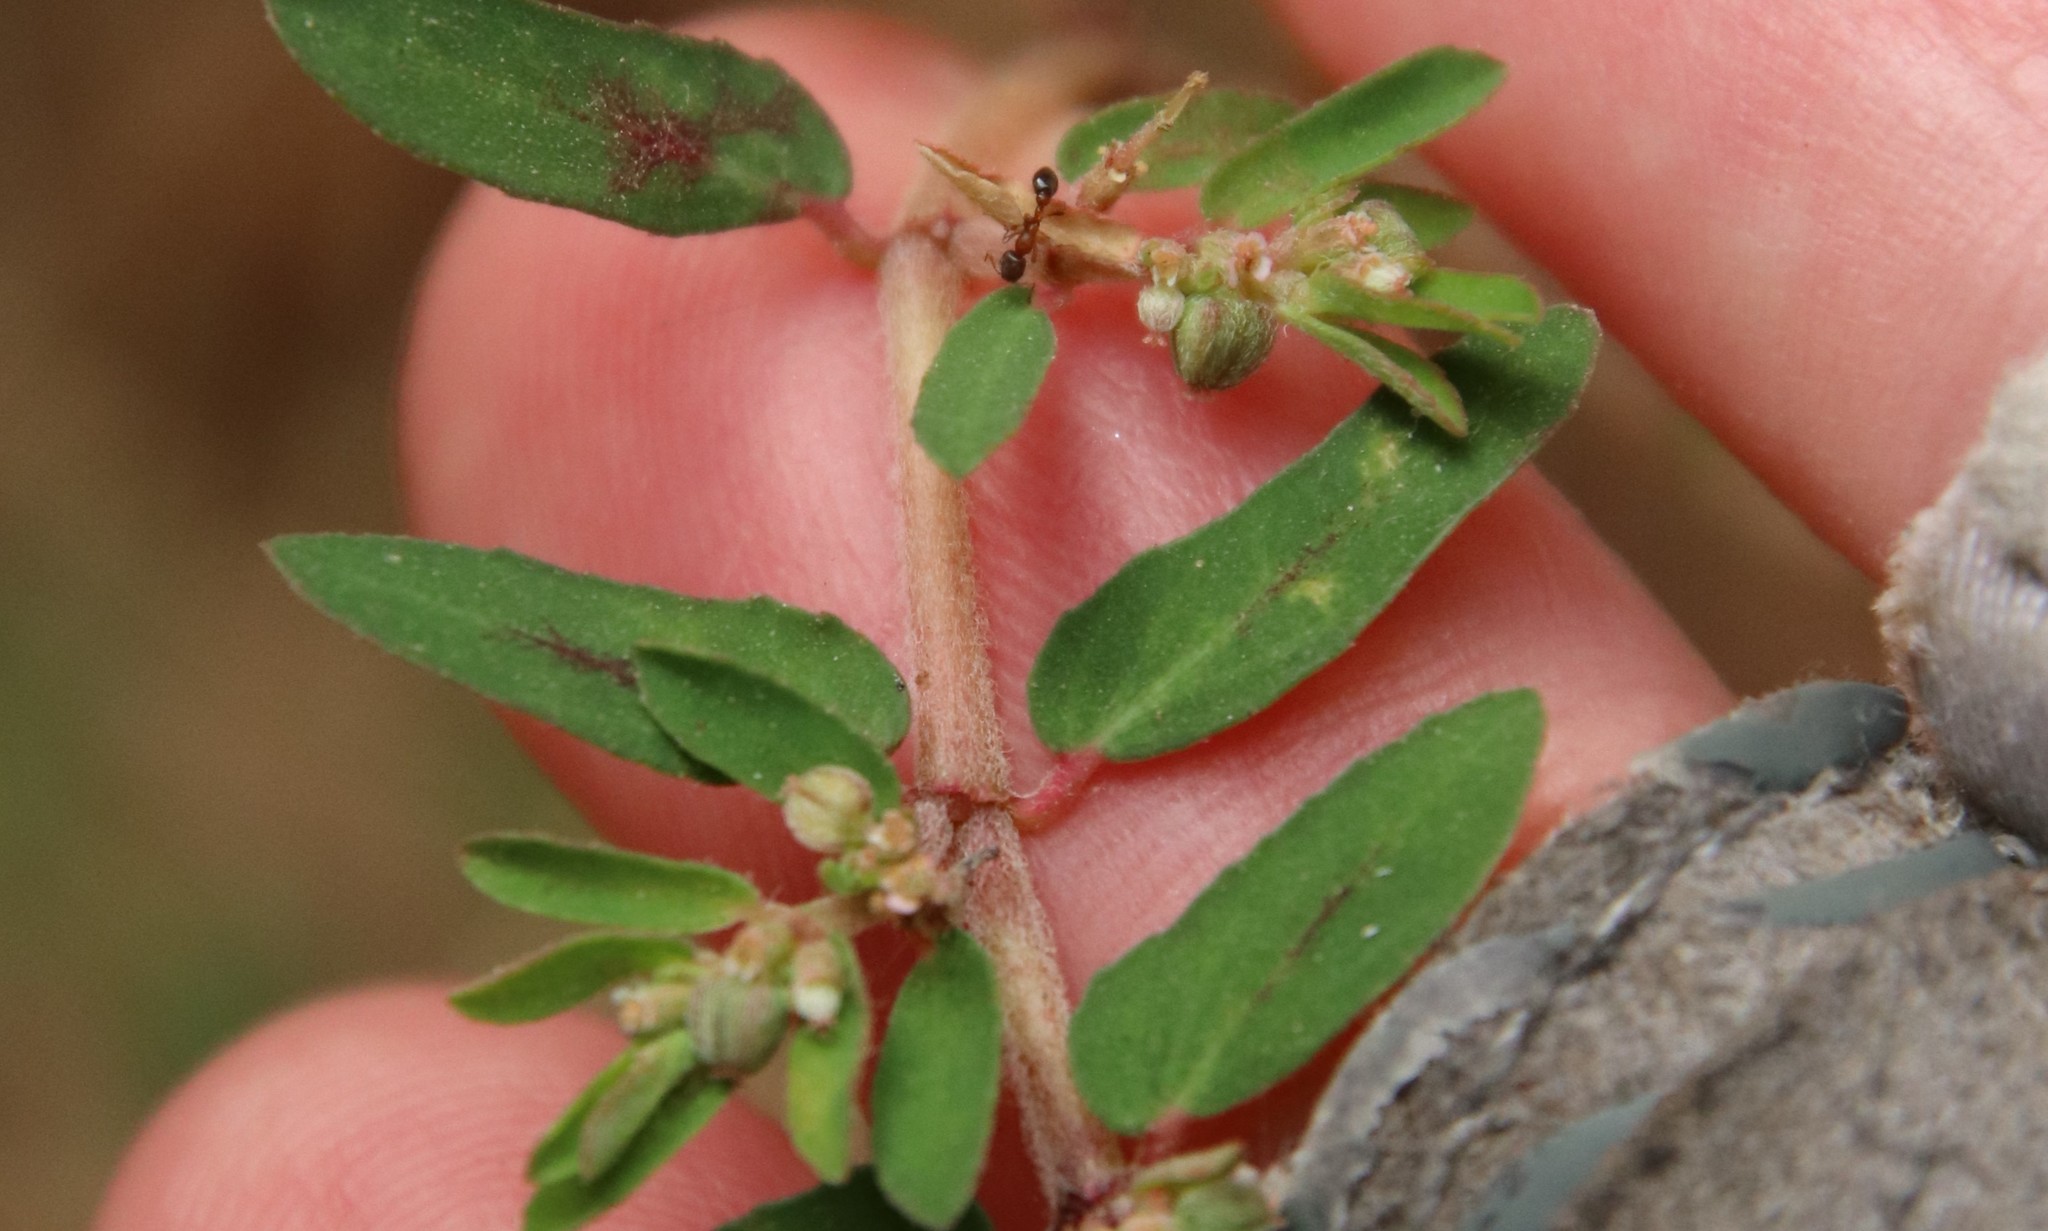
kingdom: Plantae
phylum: Tracheophyta
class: Magnoliopsida
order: Malpighiales
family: Euphorbiaceae
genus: Euphorbia
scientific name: Euphorbia maculata
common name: Spotted spurge
